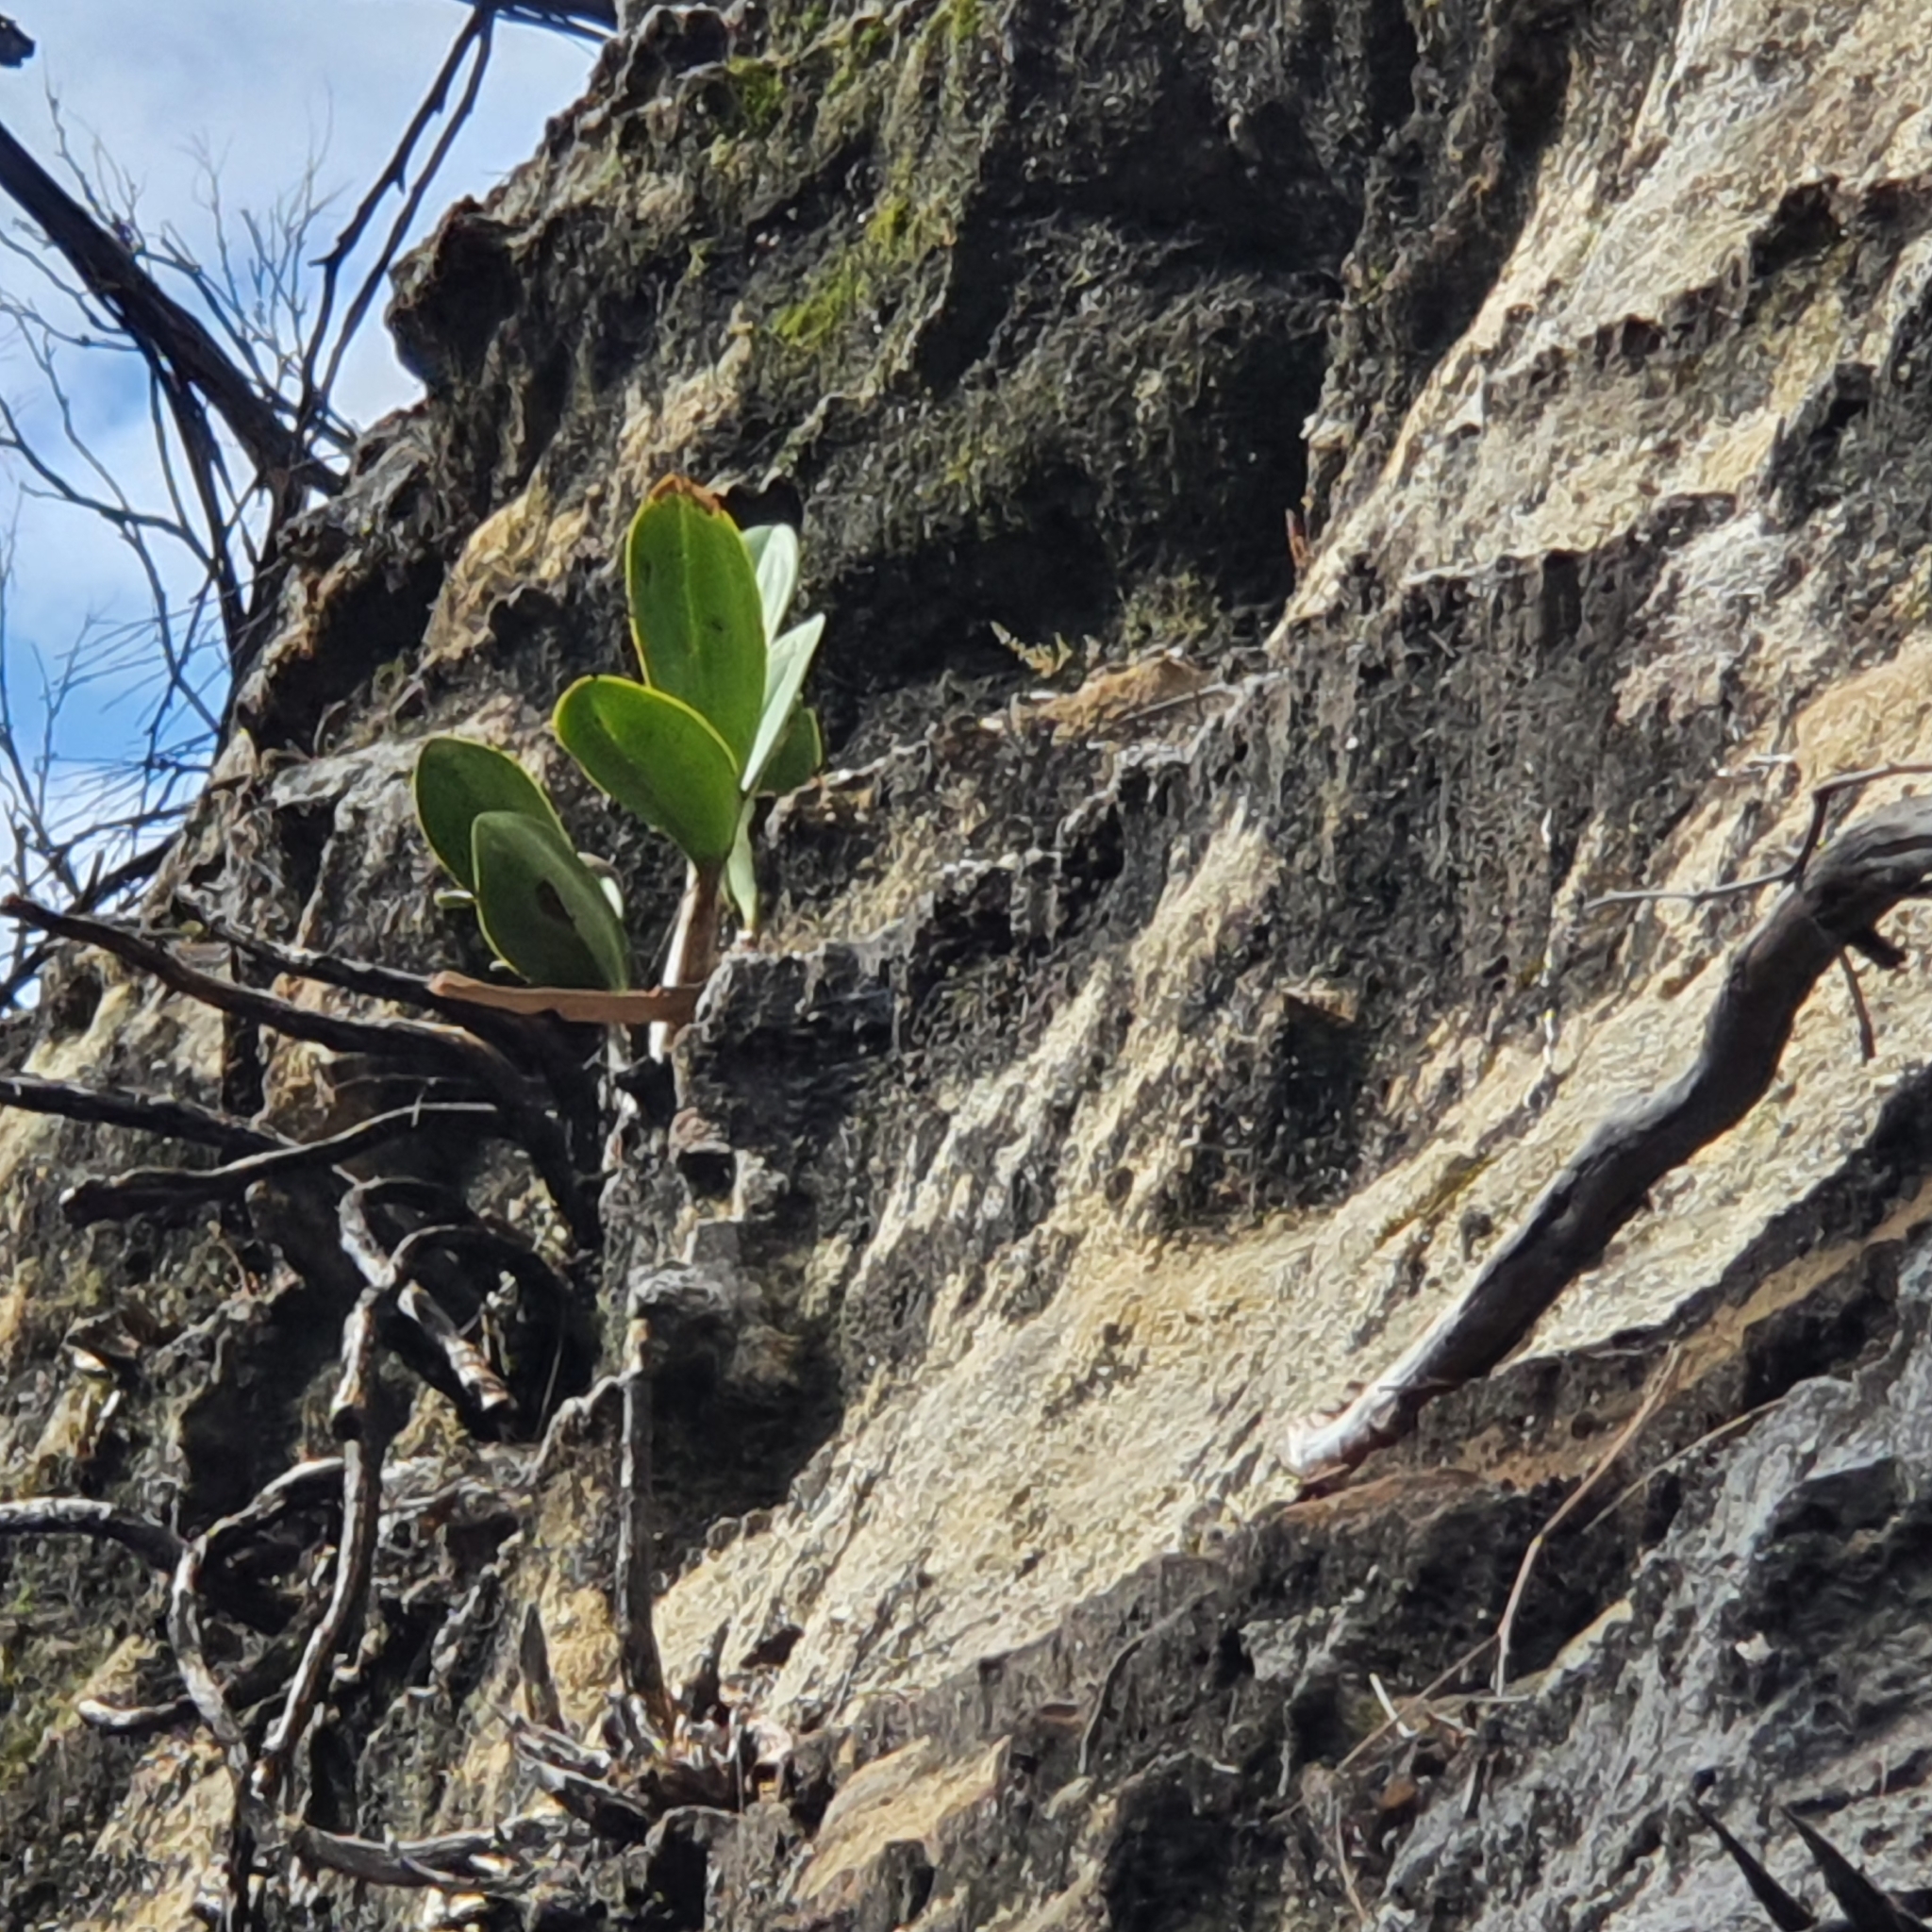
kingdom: Plantae
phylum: Tracheophyta
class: Liliopsida
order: Asparagales
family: Orchidaceae
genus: Dendrobium
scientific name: Dendrobium speciosum
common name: Rock-lily
